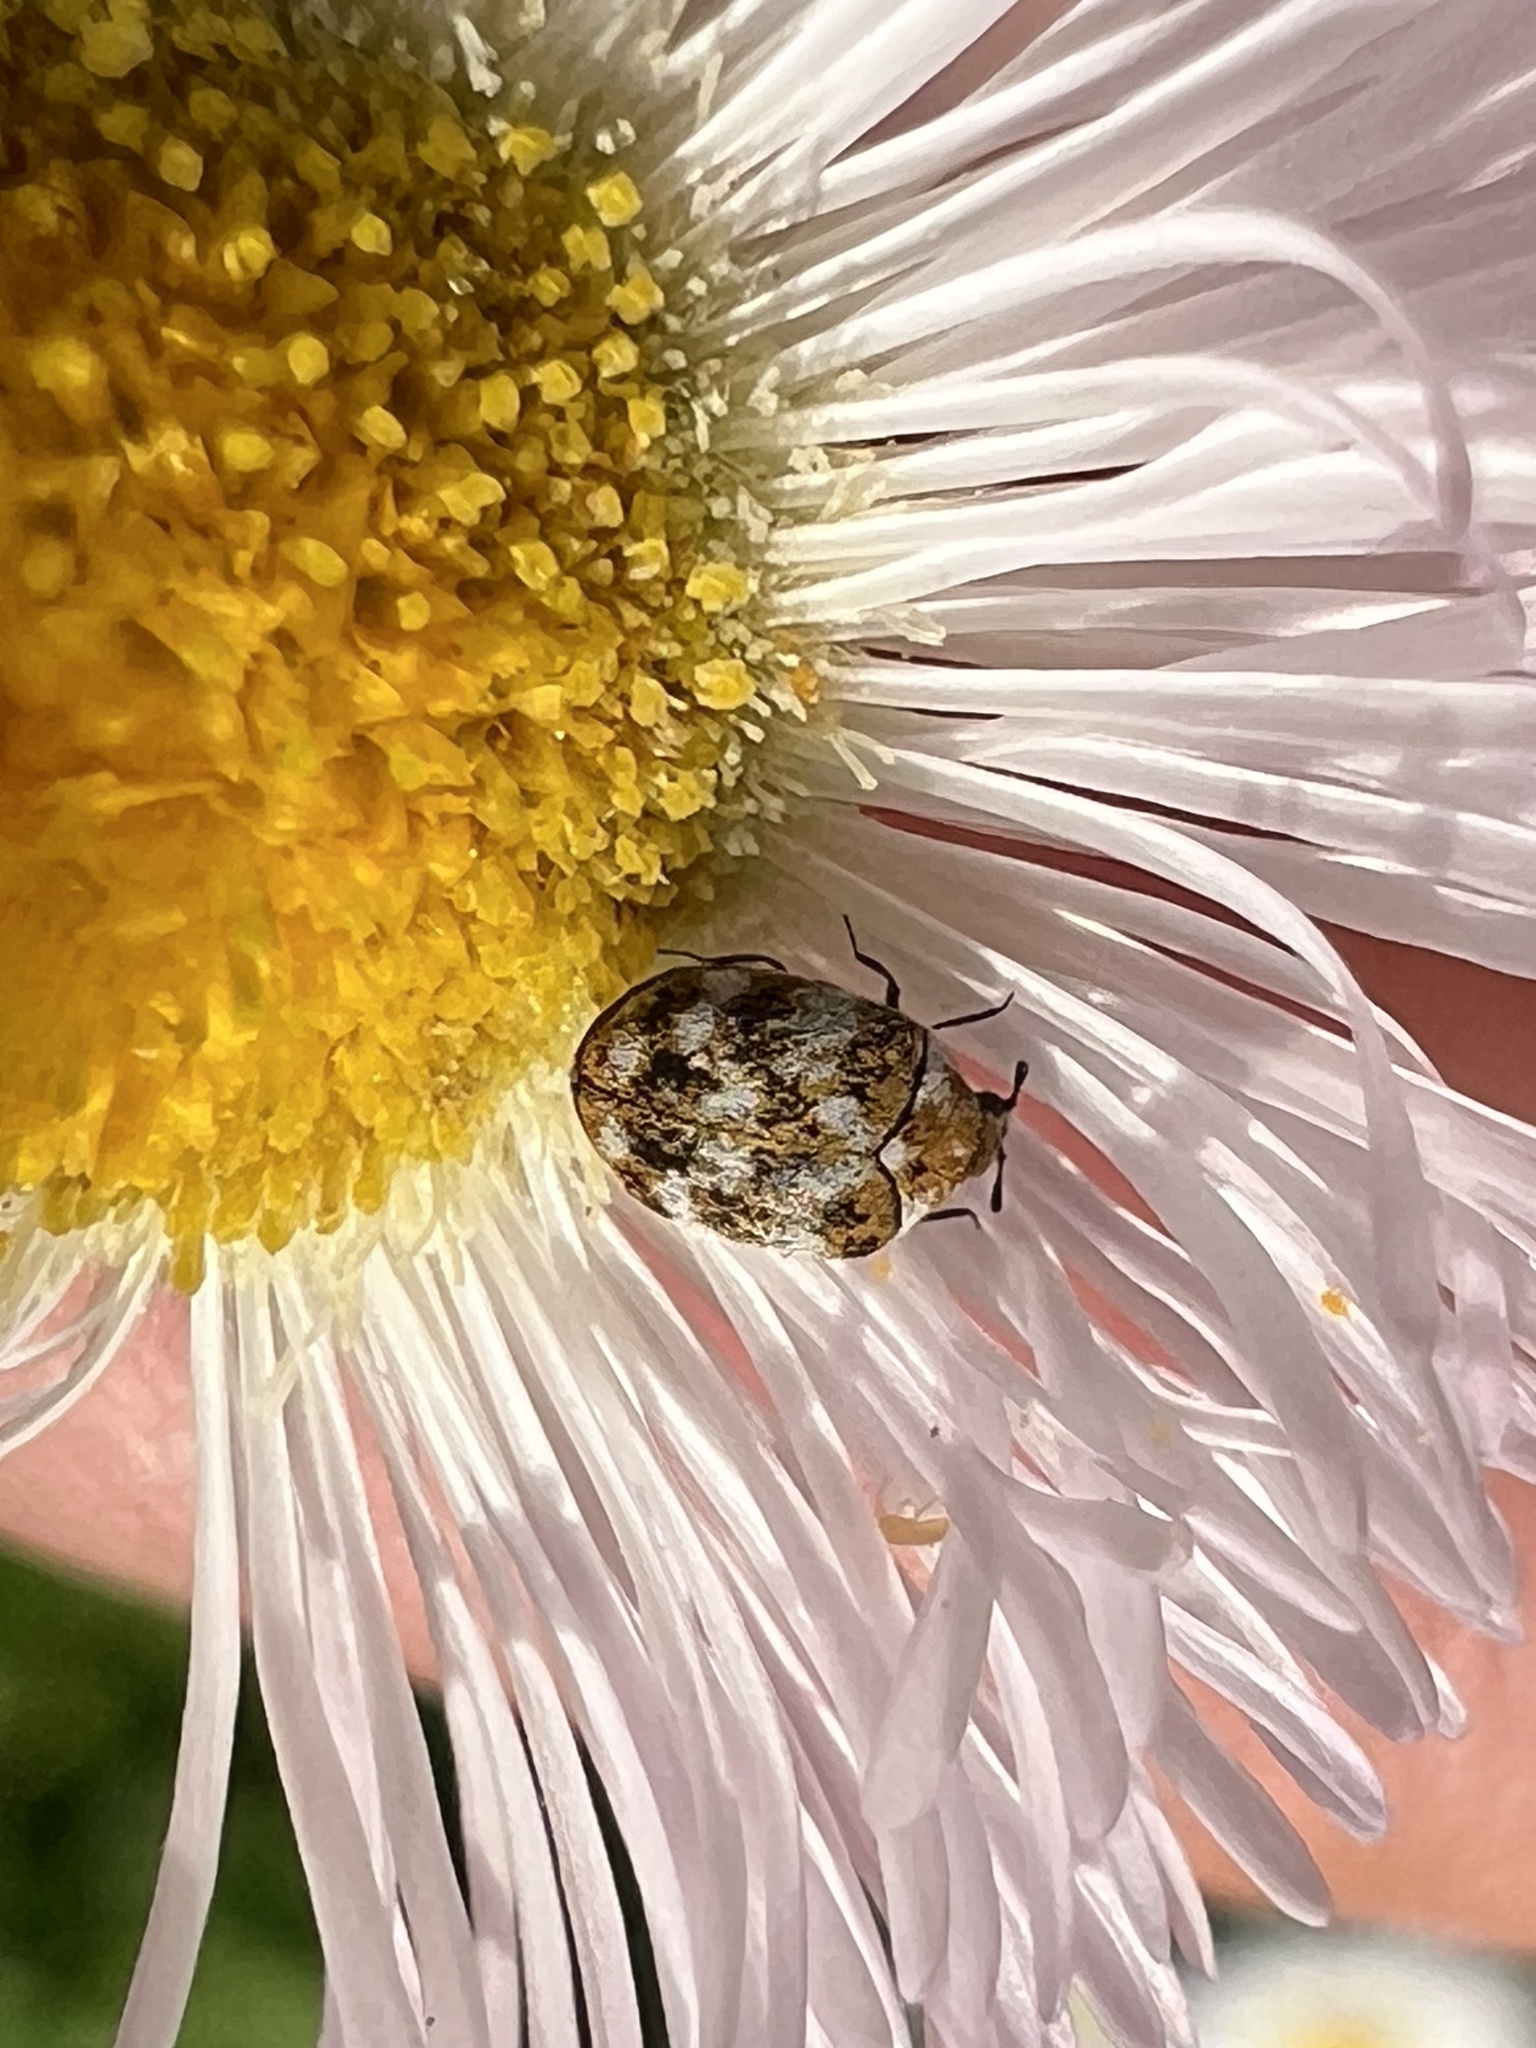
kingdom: Animalia
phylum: Arthropoda
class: Insecta
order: Coleoptera
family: Dermestidae
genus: Anthrenus
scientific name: Anthrenus verbasci
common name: Varied carpet beetle
